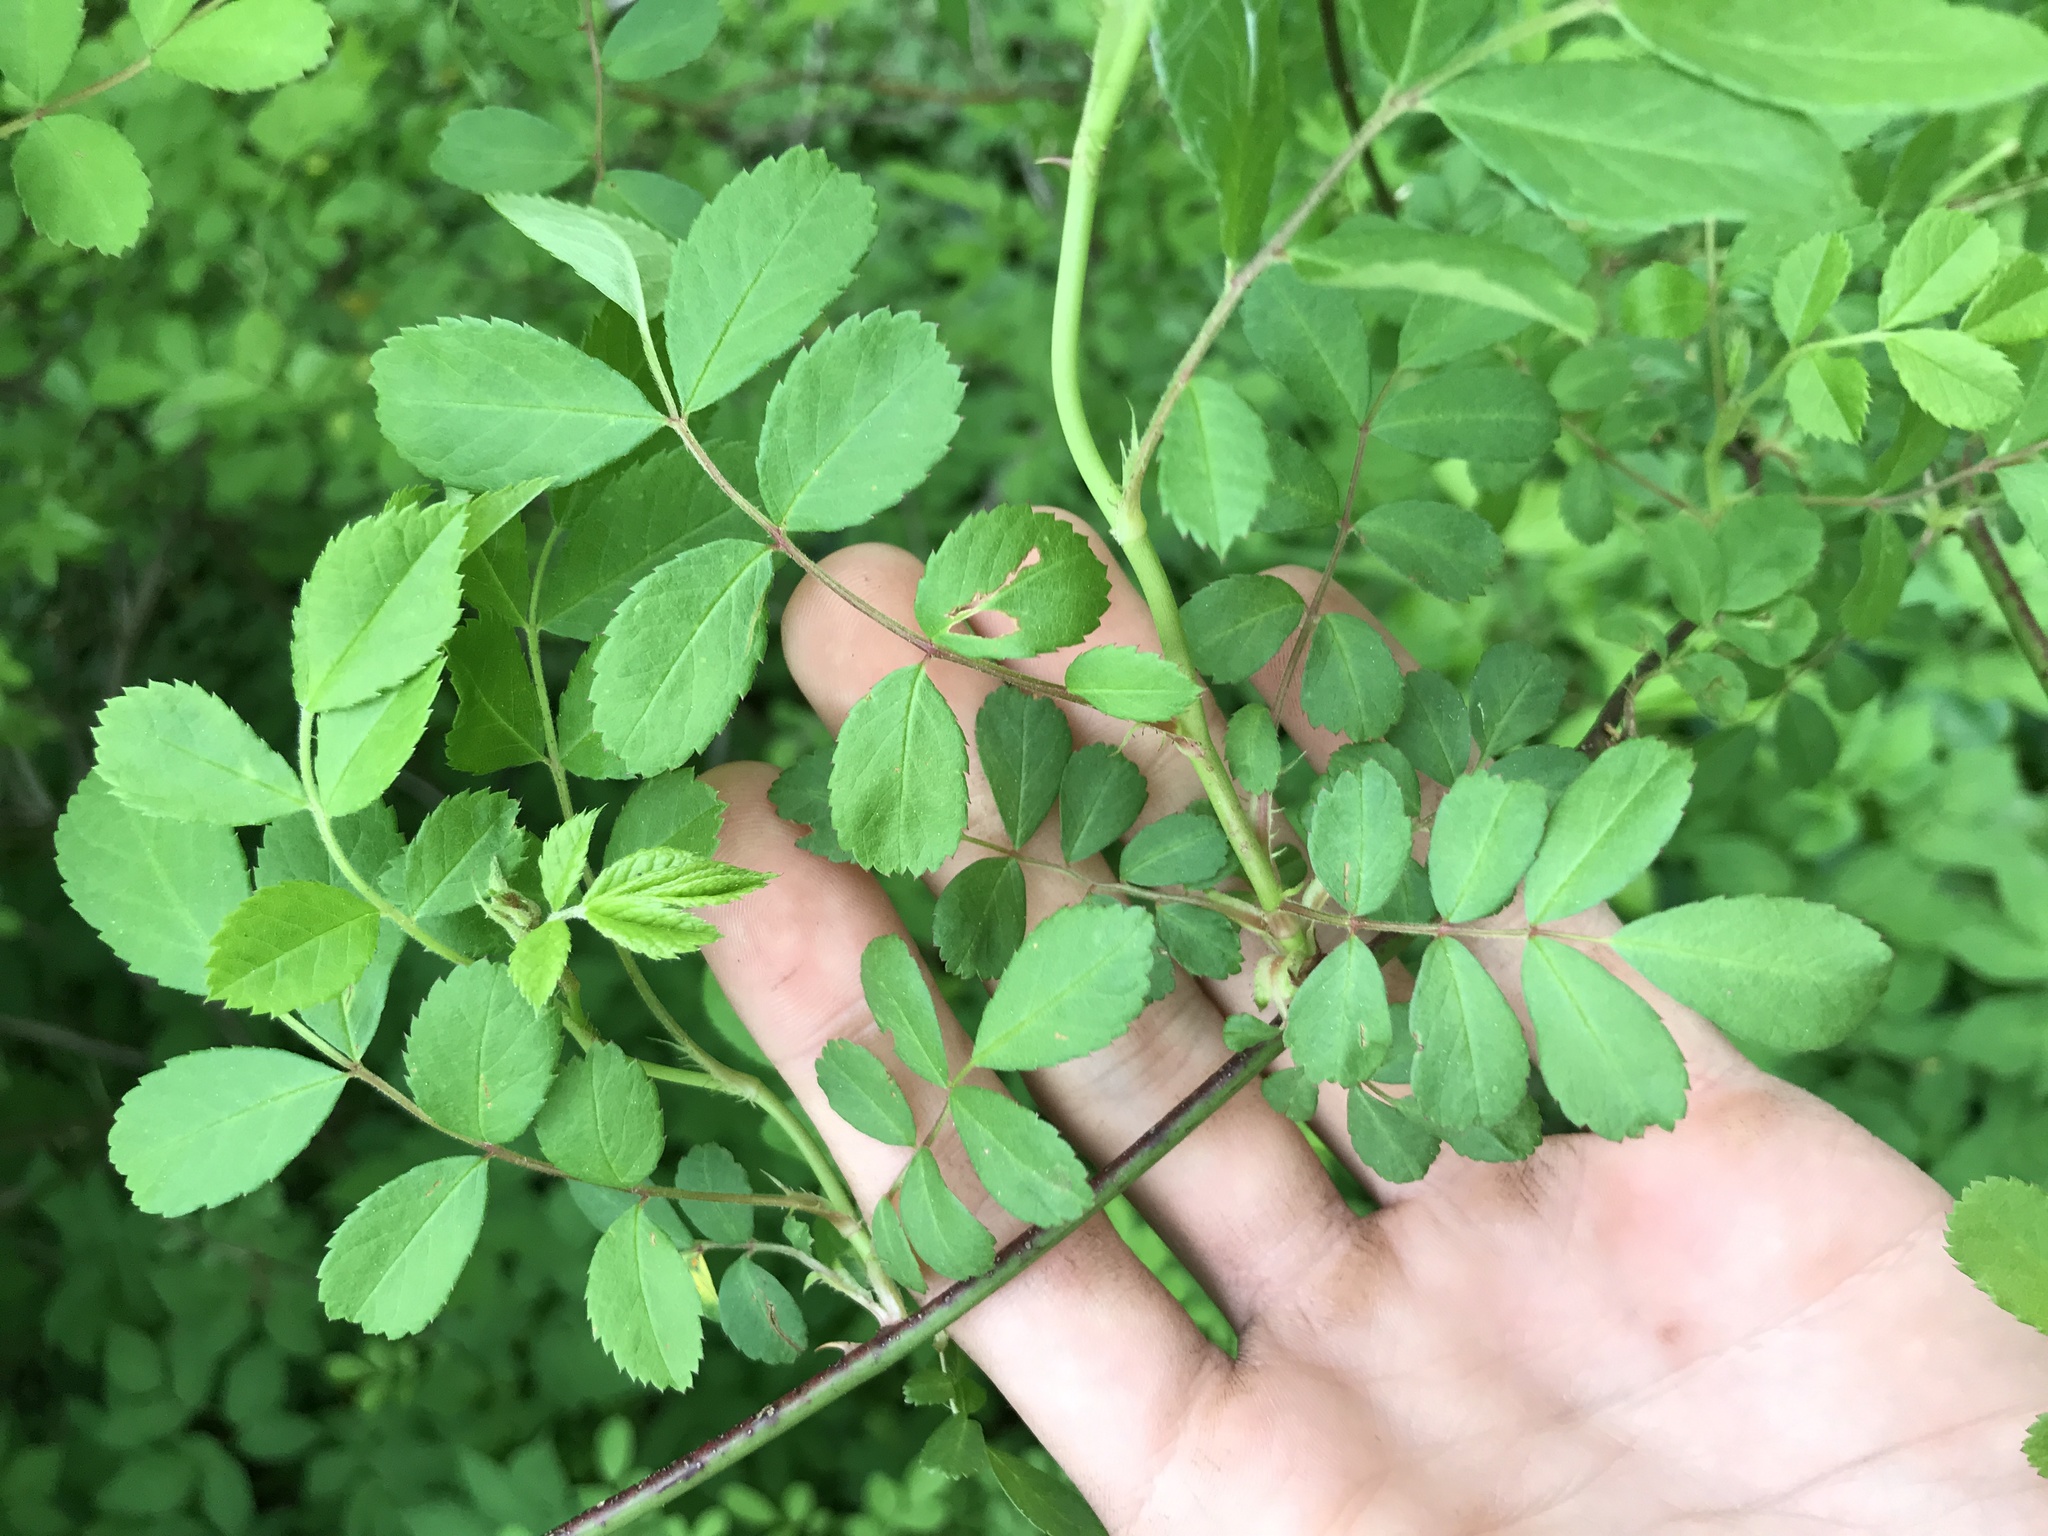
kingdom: Plantae
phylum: Tracheophyta
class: Magnoliopsida
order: Rosales
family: Rosaceae
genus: Rosa
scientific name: Rosa multiflora
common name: Multiflora rose
